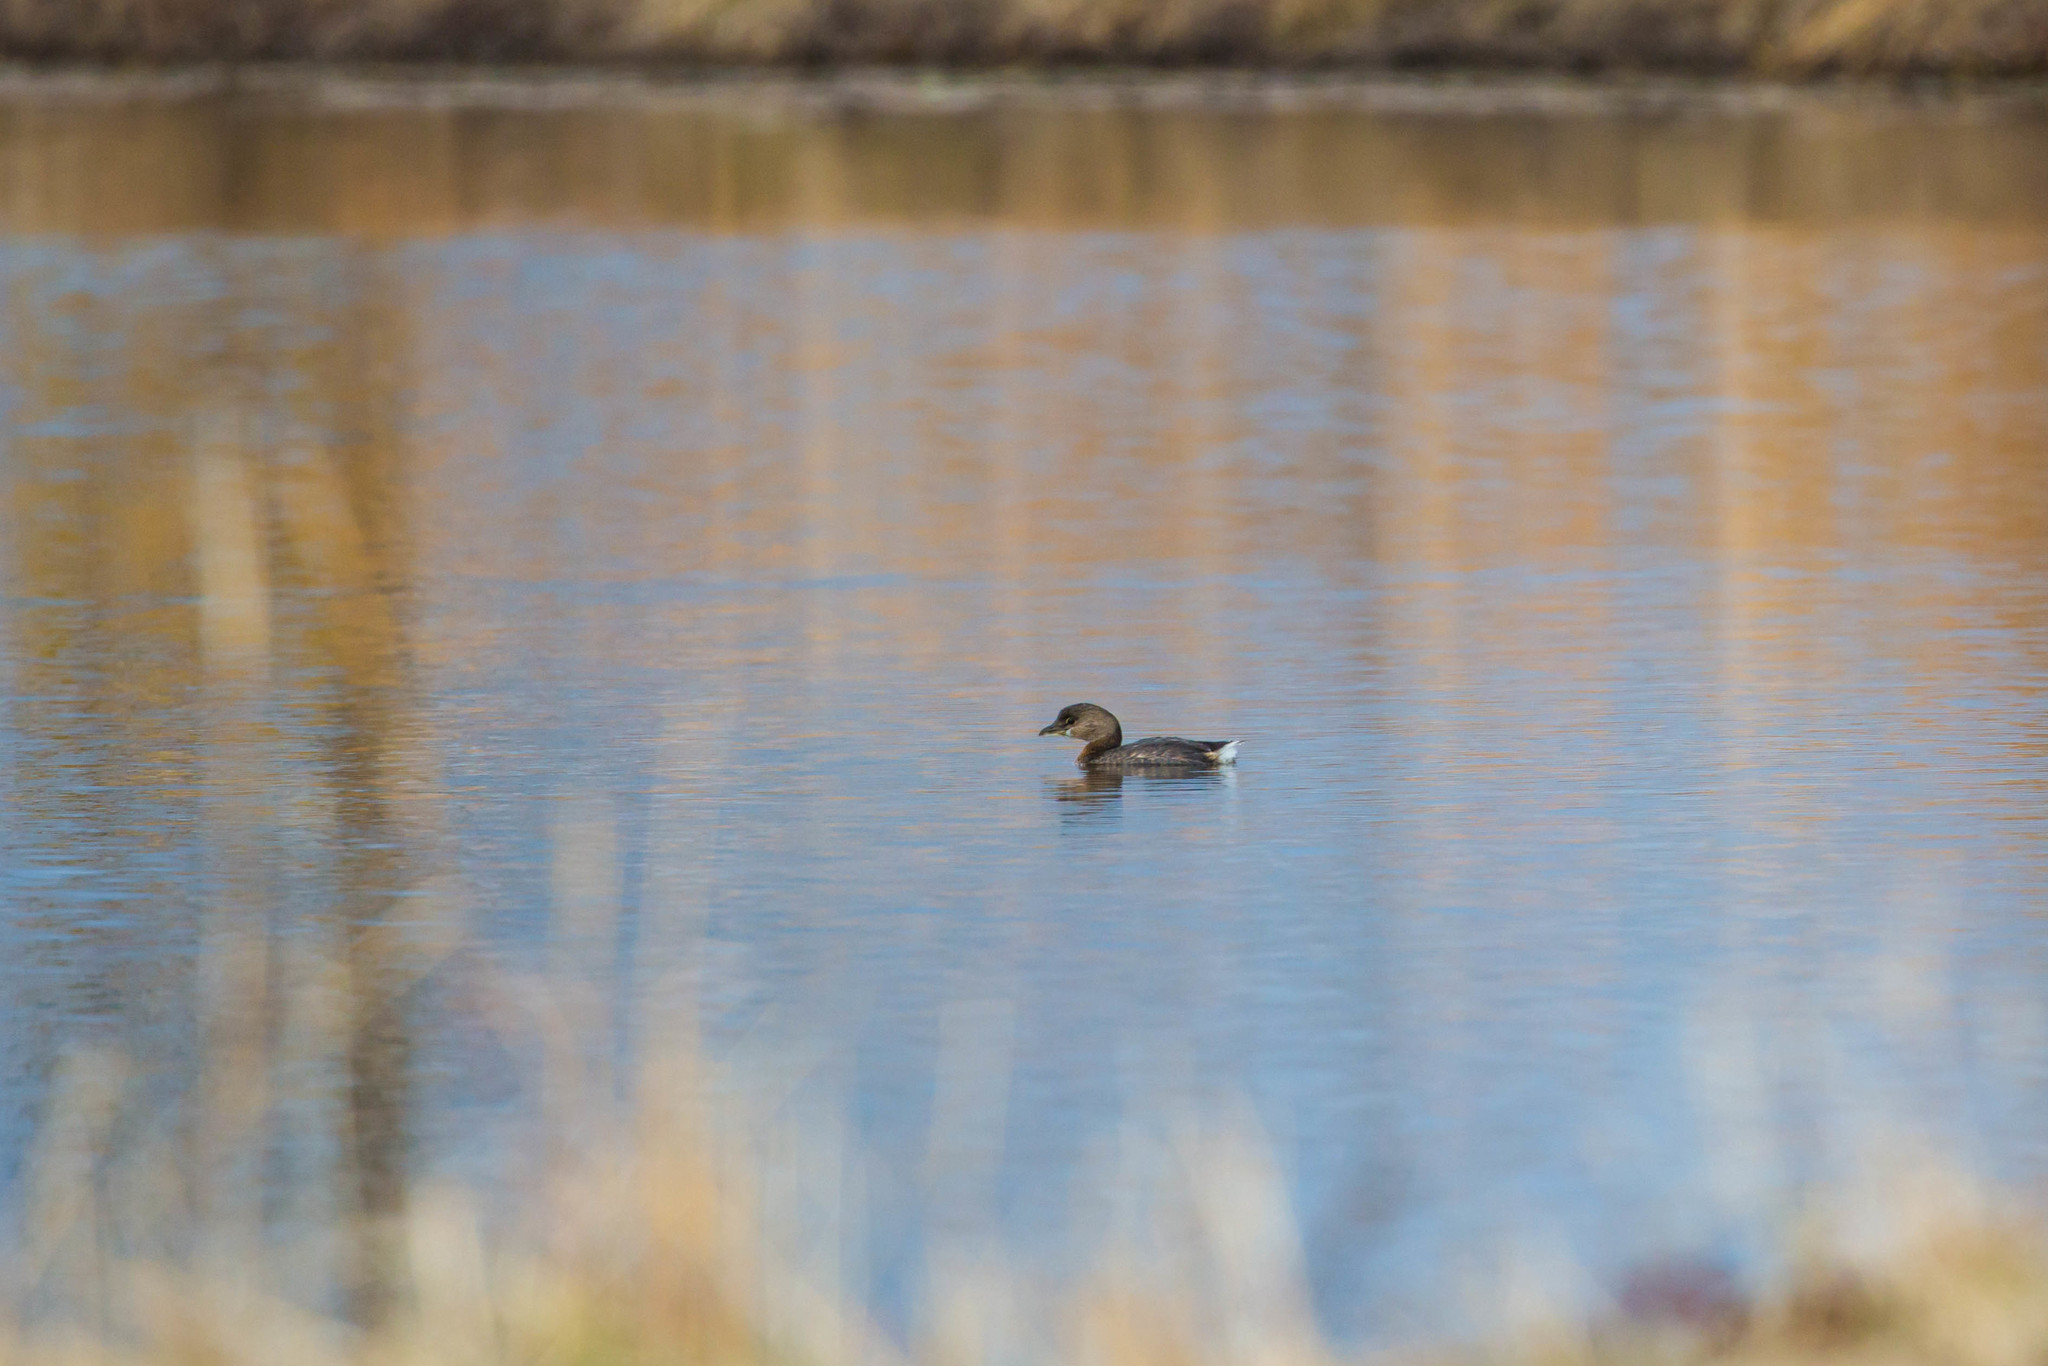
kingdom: Animalia
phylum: Chordata
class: Aves
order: Podicipediformes
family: Podicipedidae
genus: Podilymbus
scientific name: Podilymbus podiceps
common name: Pied-billed grebe
